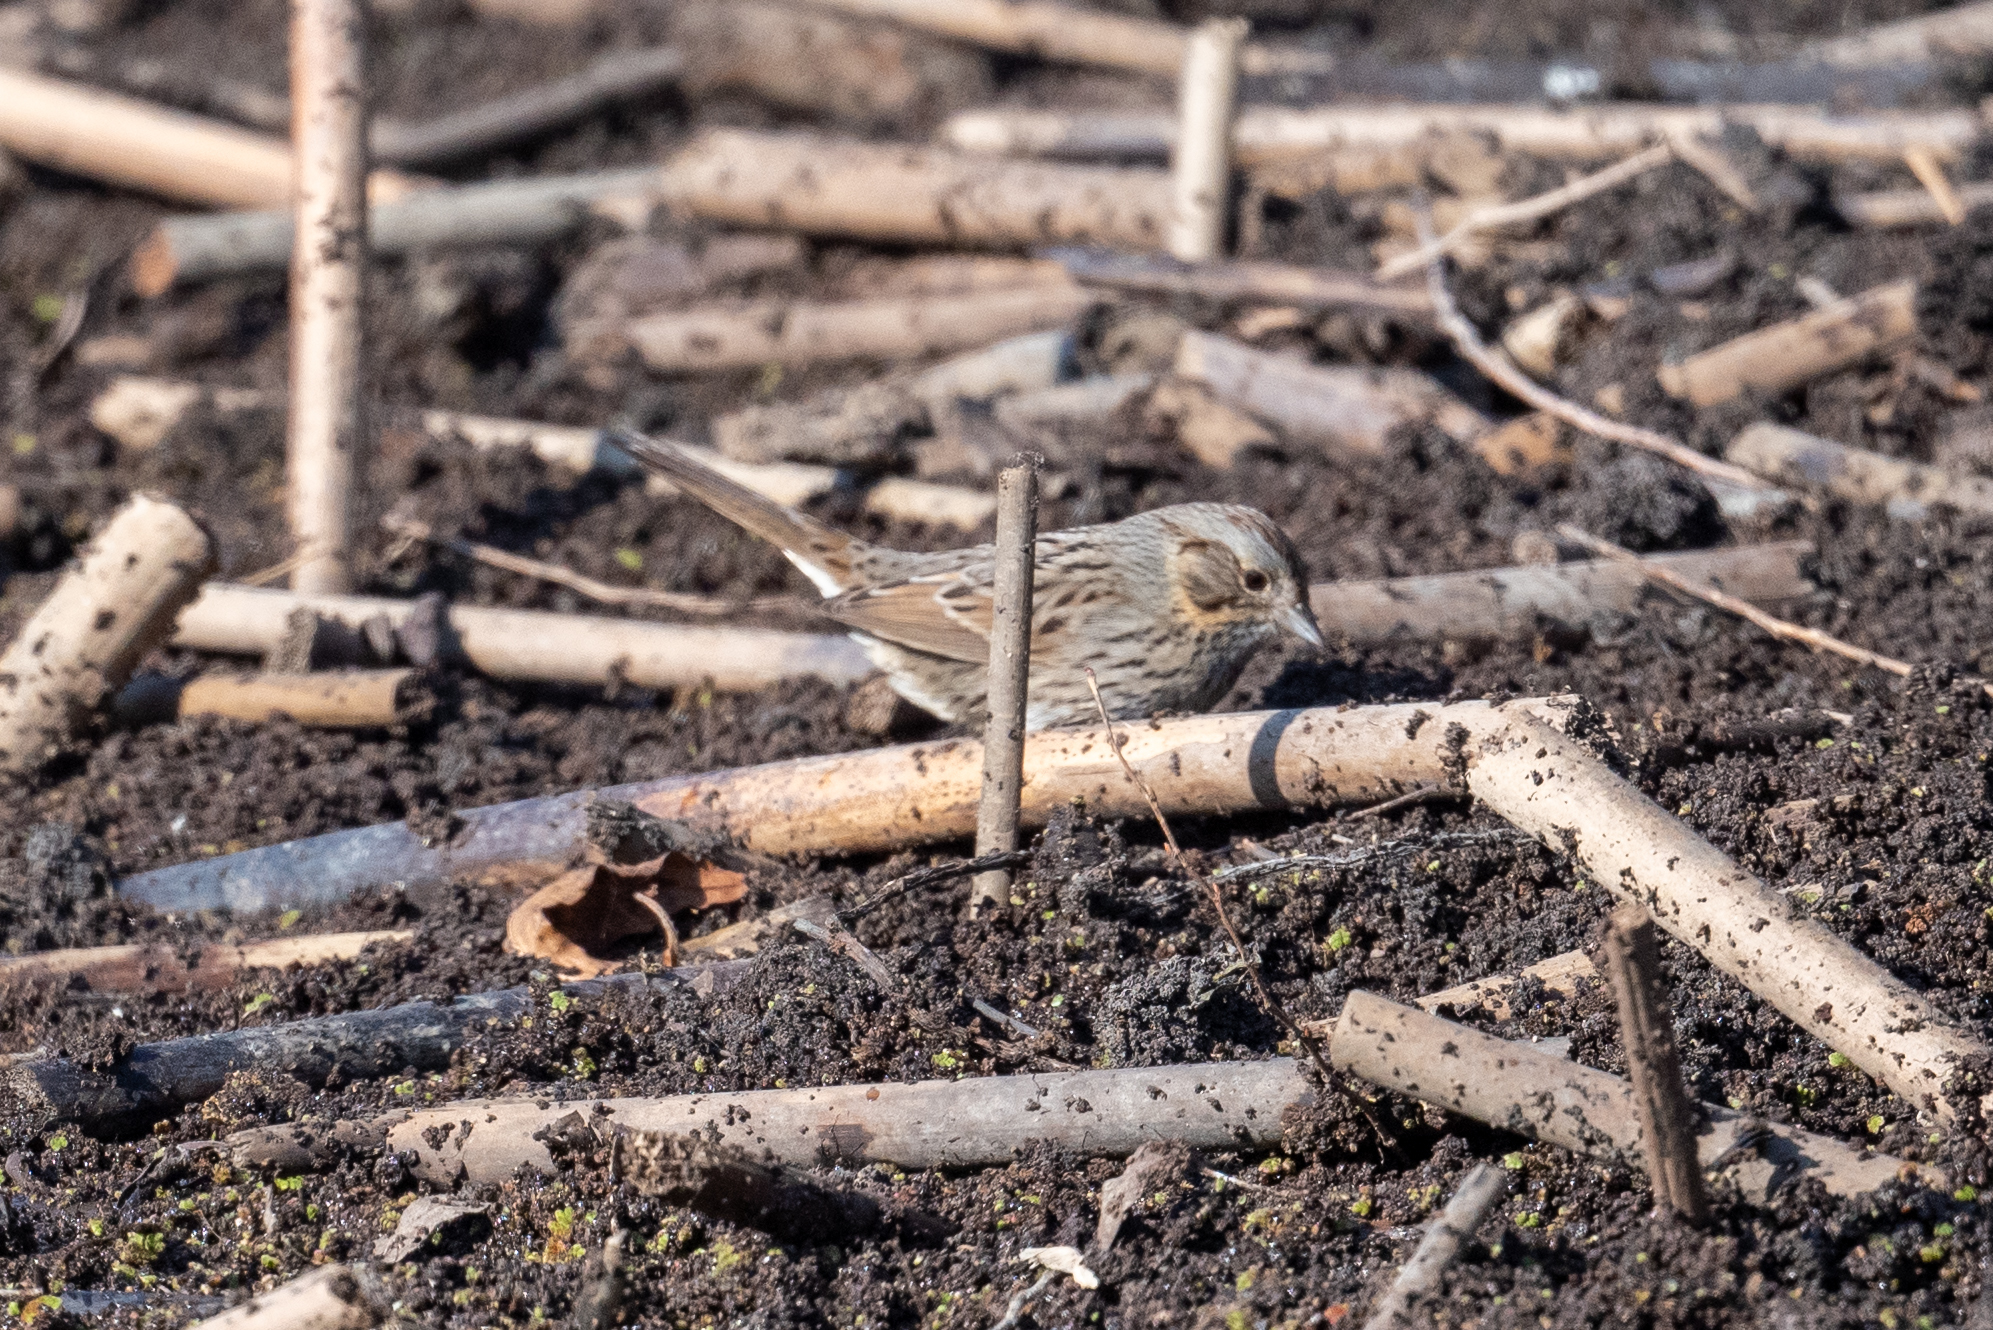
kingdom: Animalia
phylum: Chordata
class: Aves
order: Passeriformes
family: Passerellidae
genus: Melospiza
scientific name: Melospiza lincolnii
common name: Lincoln's sparrow
